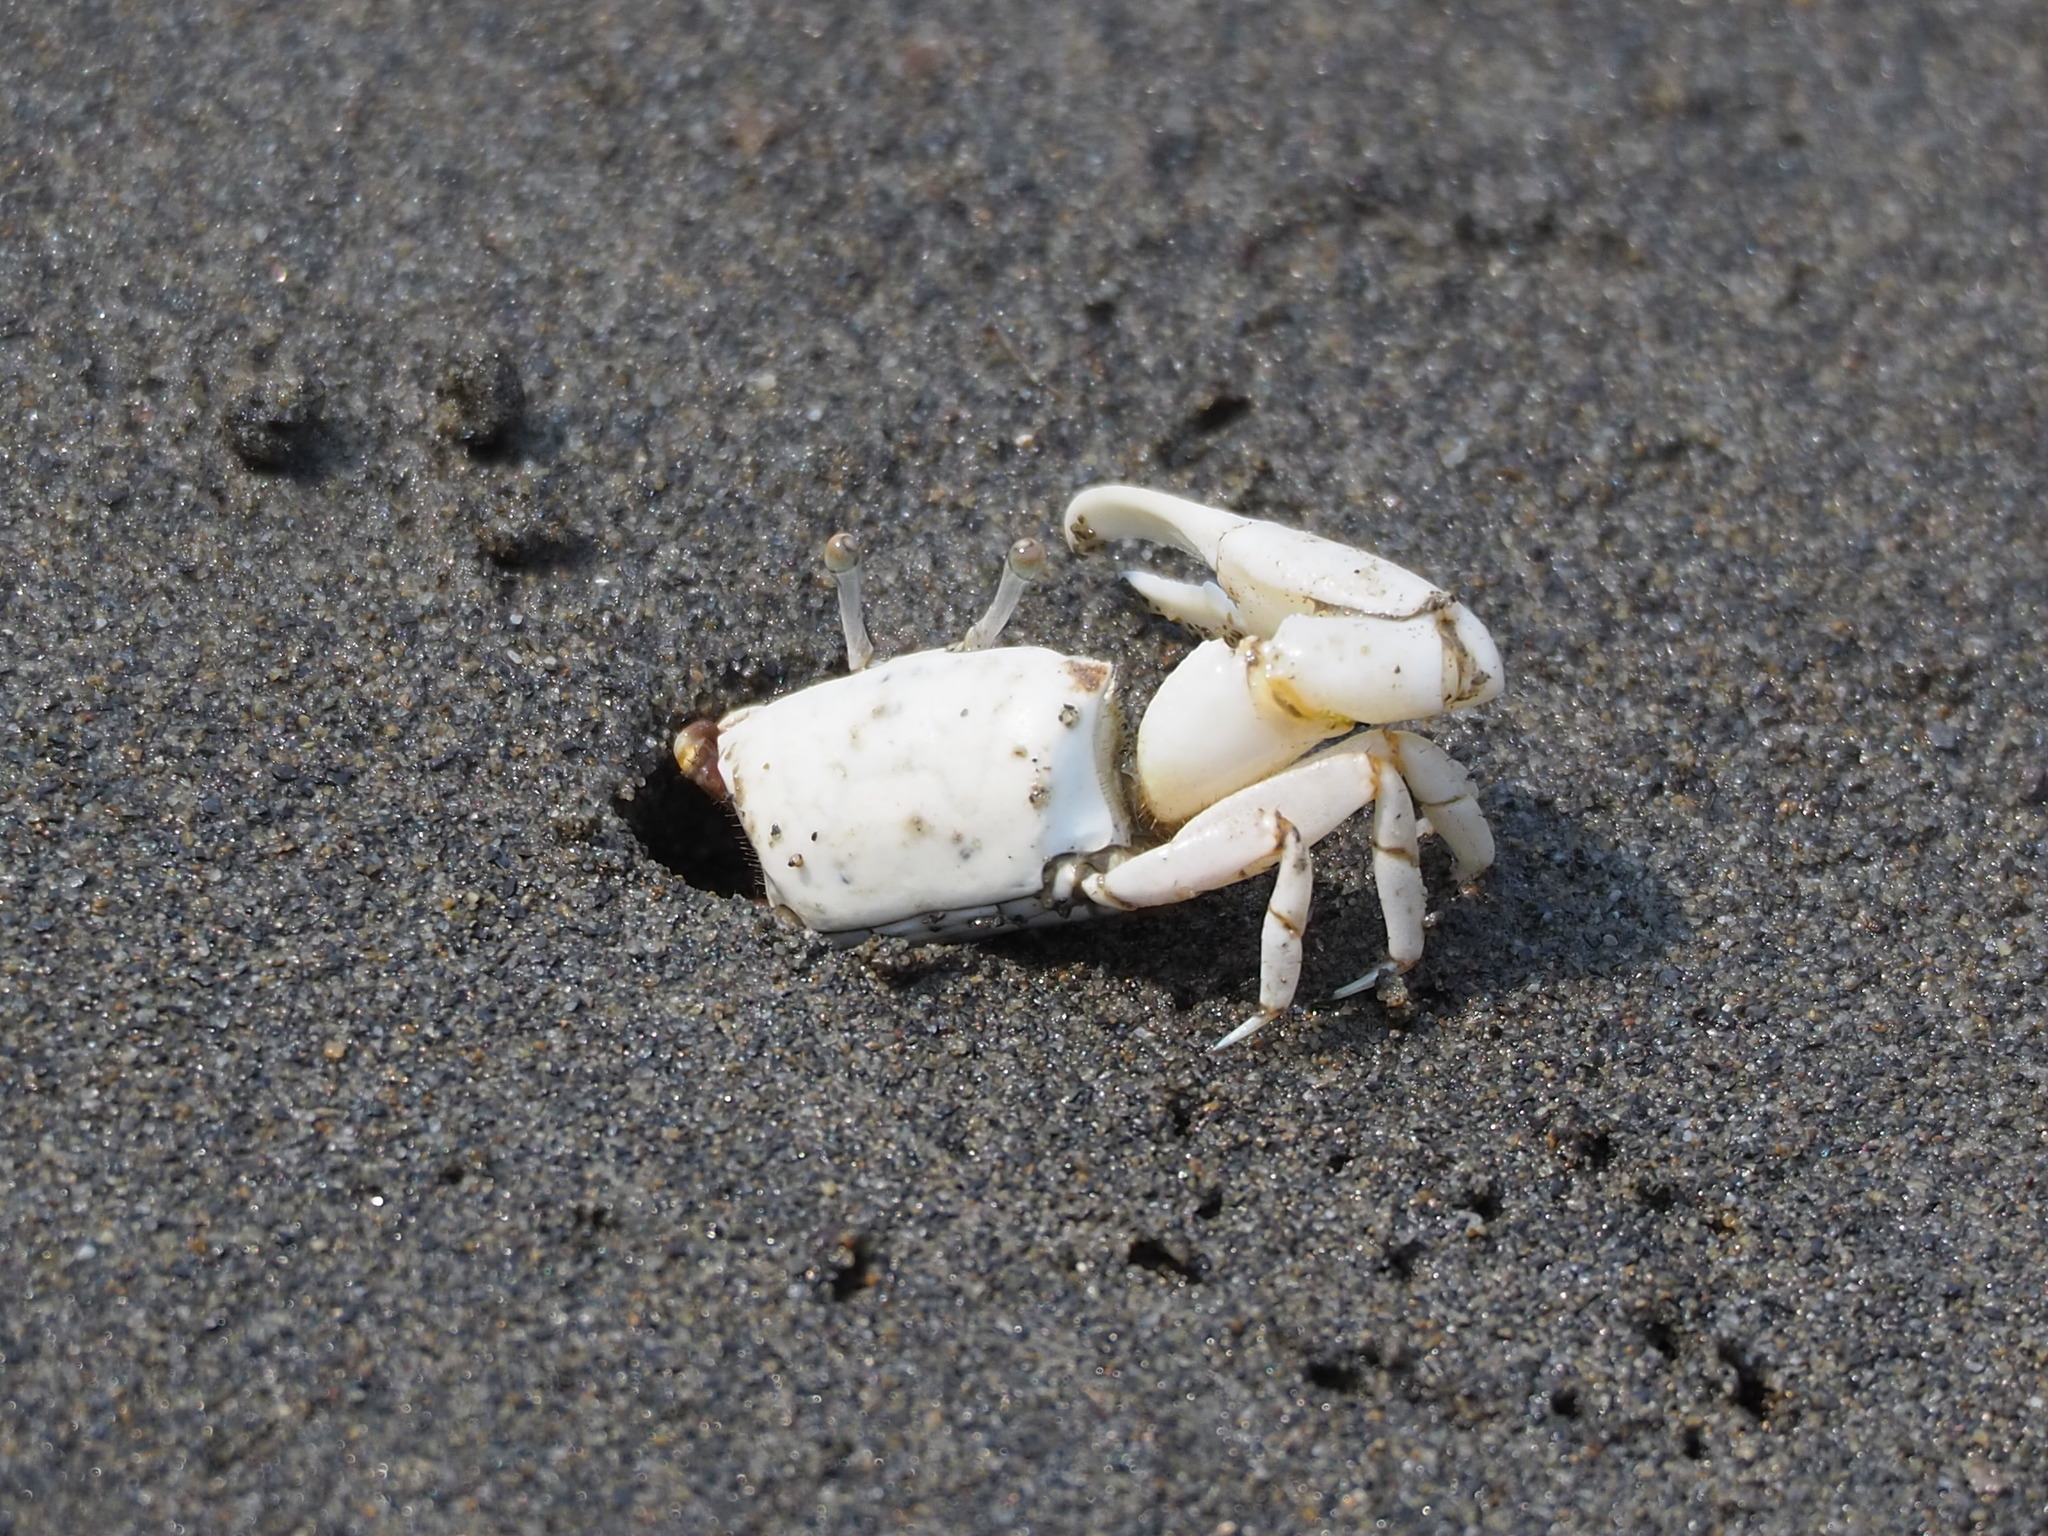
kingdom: Animalia
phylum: Arthropoda
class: Malacostraca
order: Decapoda
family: Ocypodidae
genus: Austruca
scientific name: Austruca lactea
